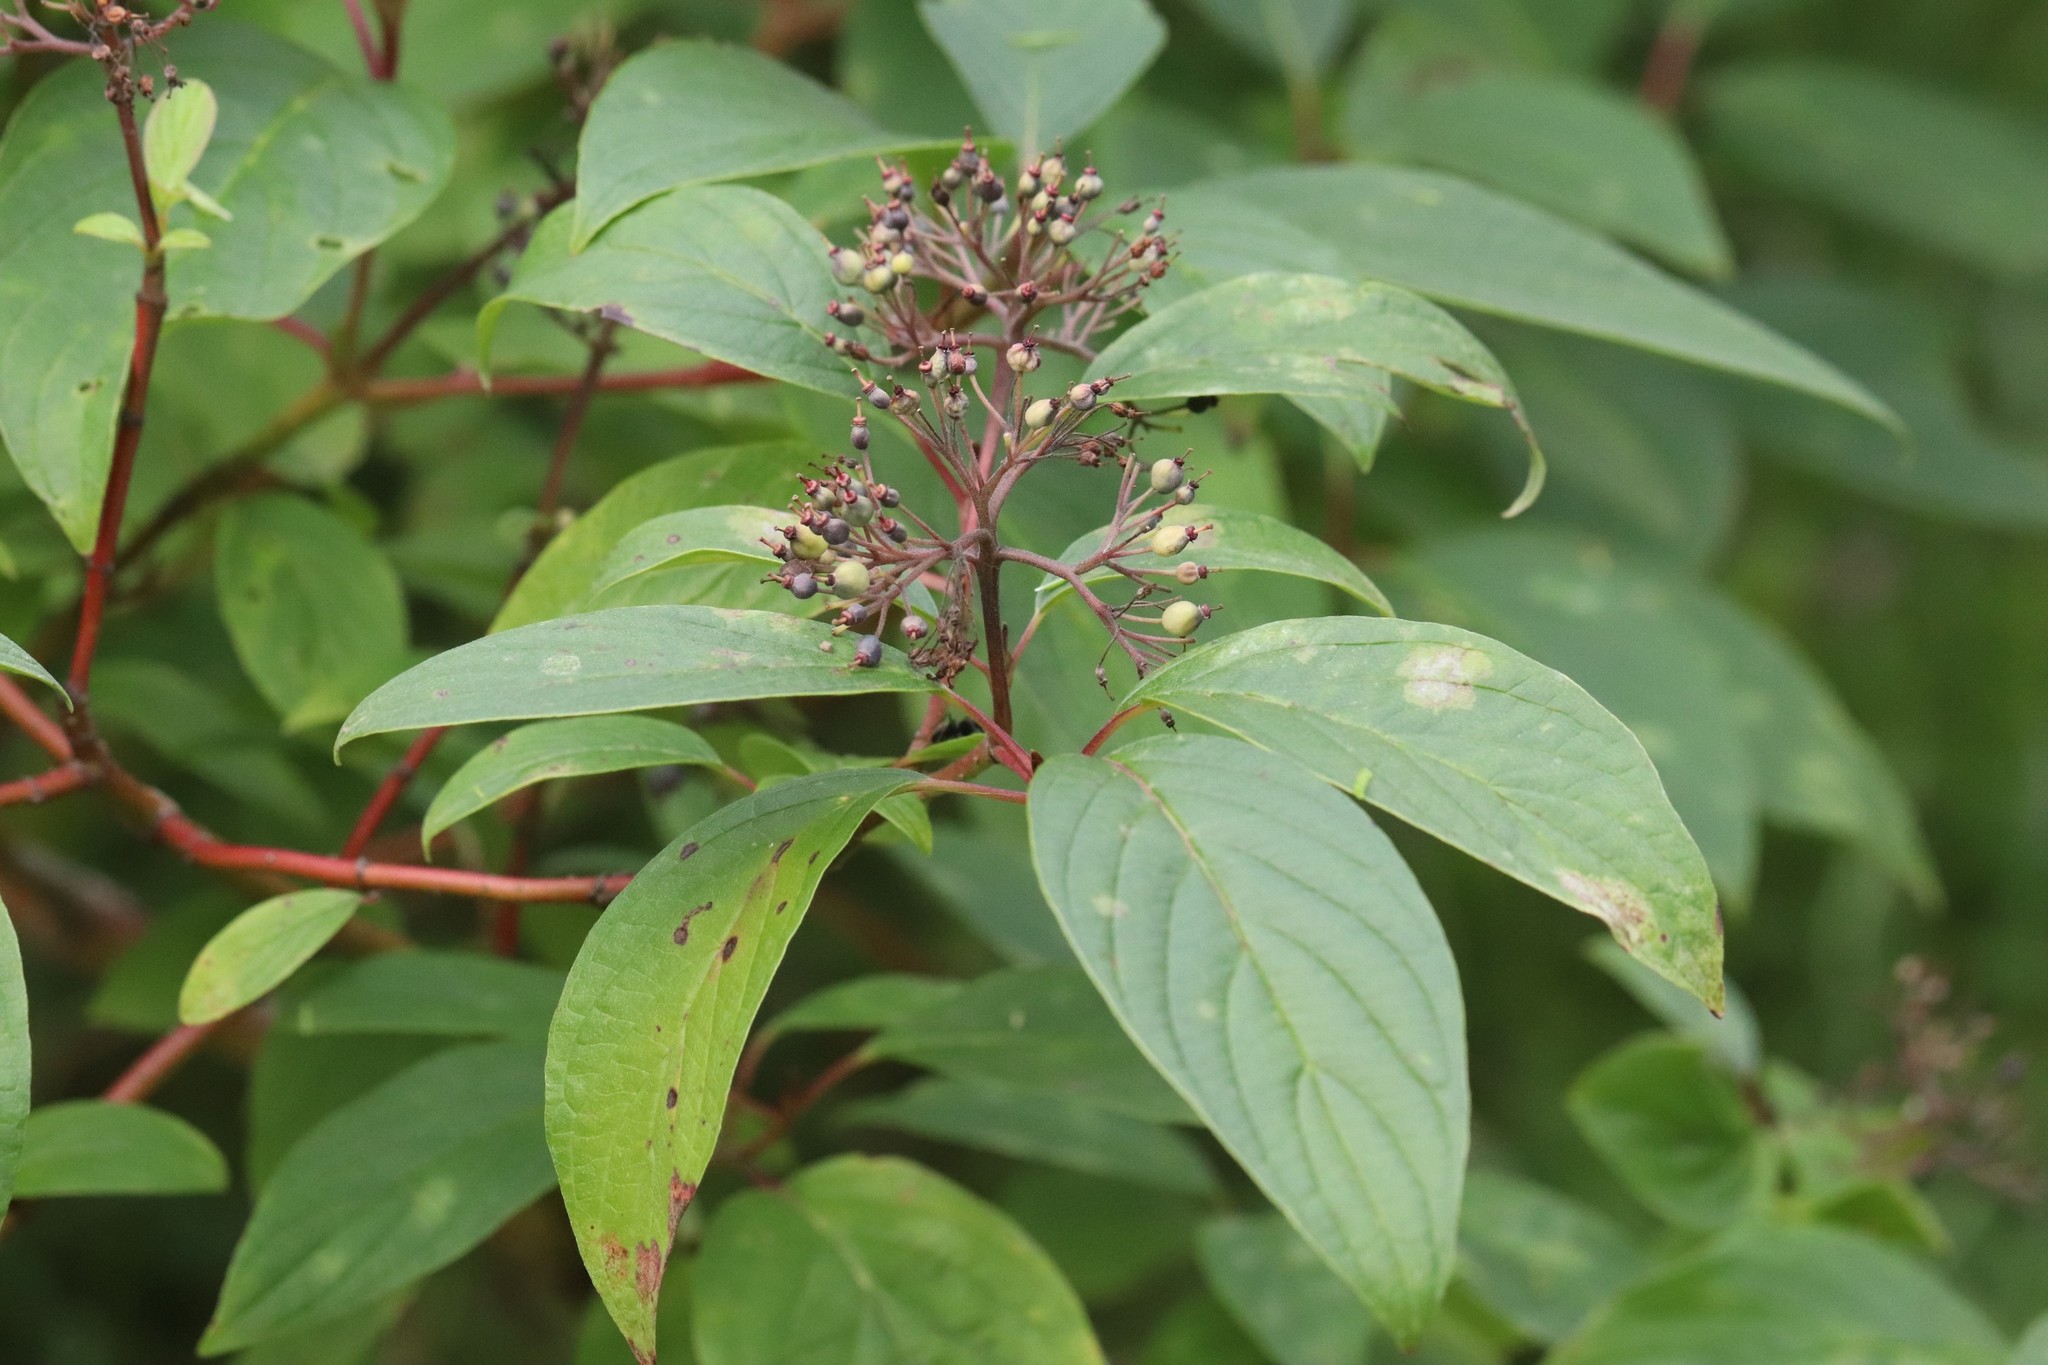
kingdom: Plantae
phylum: Tracheophyta
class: Magnoliopsida
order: Cornales
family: Cornaceae
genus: Cornus
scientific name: Cornus alba
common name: White dogwood
